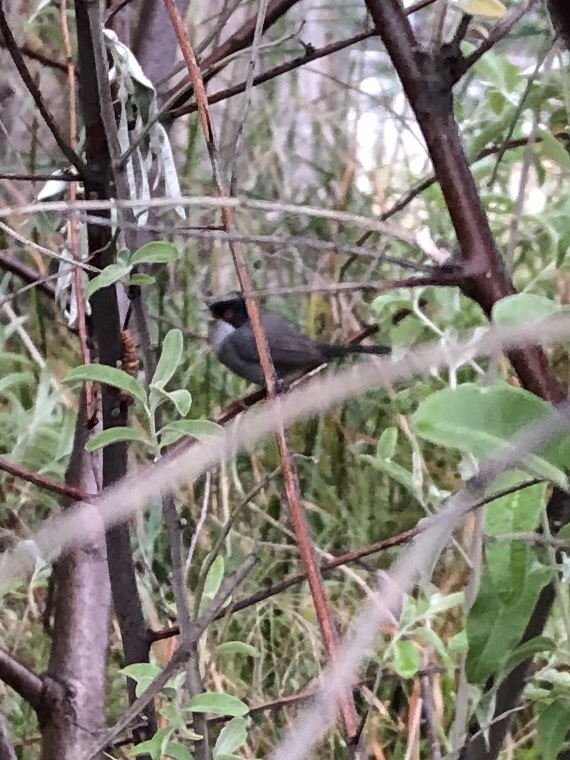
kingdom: Animalia
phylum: Chordata
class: Aves
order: Passeriformes
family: Sylviidae
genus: Curruca
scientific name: Curruca melanocephala
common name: Sardinian warbler
